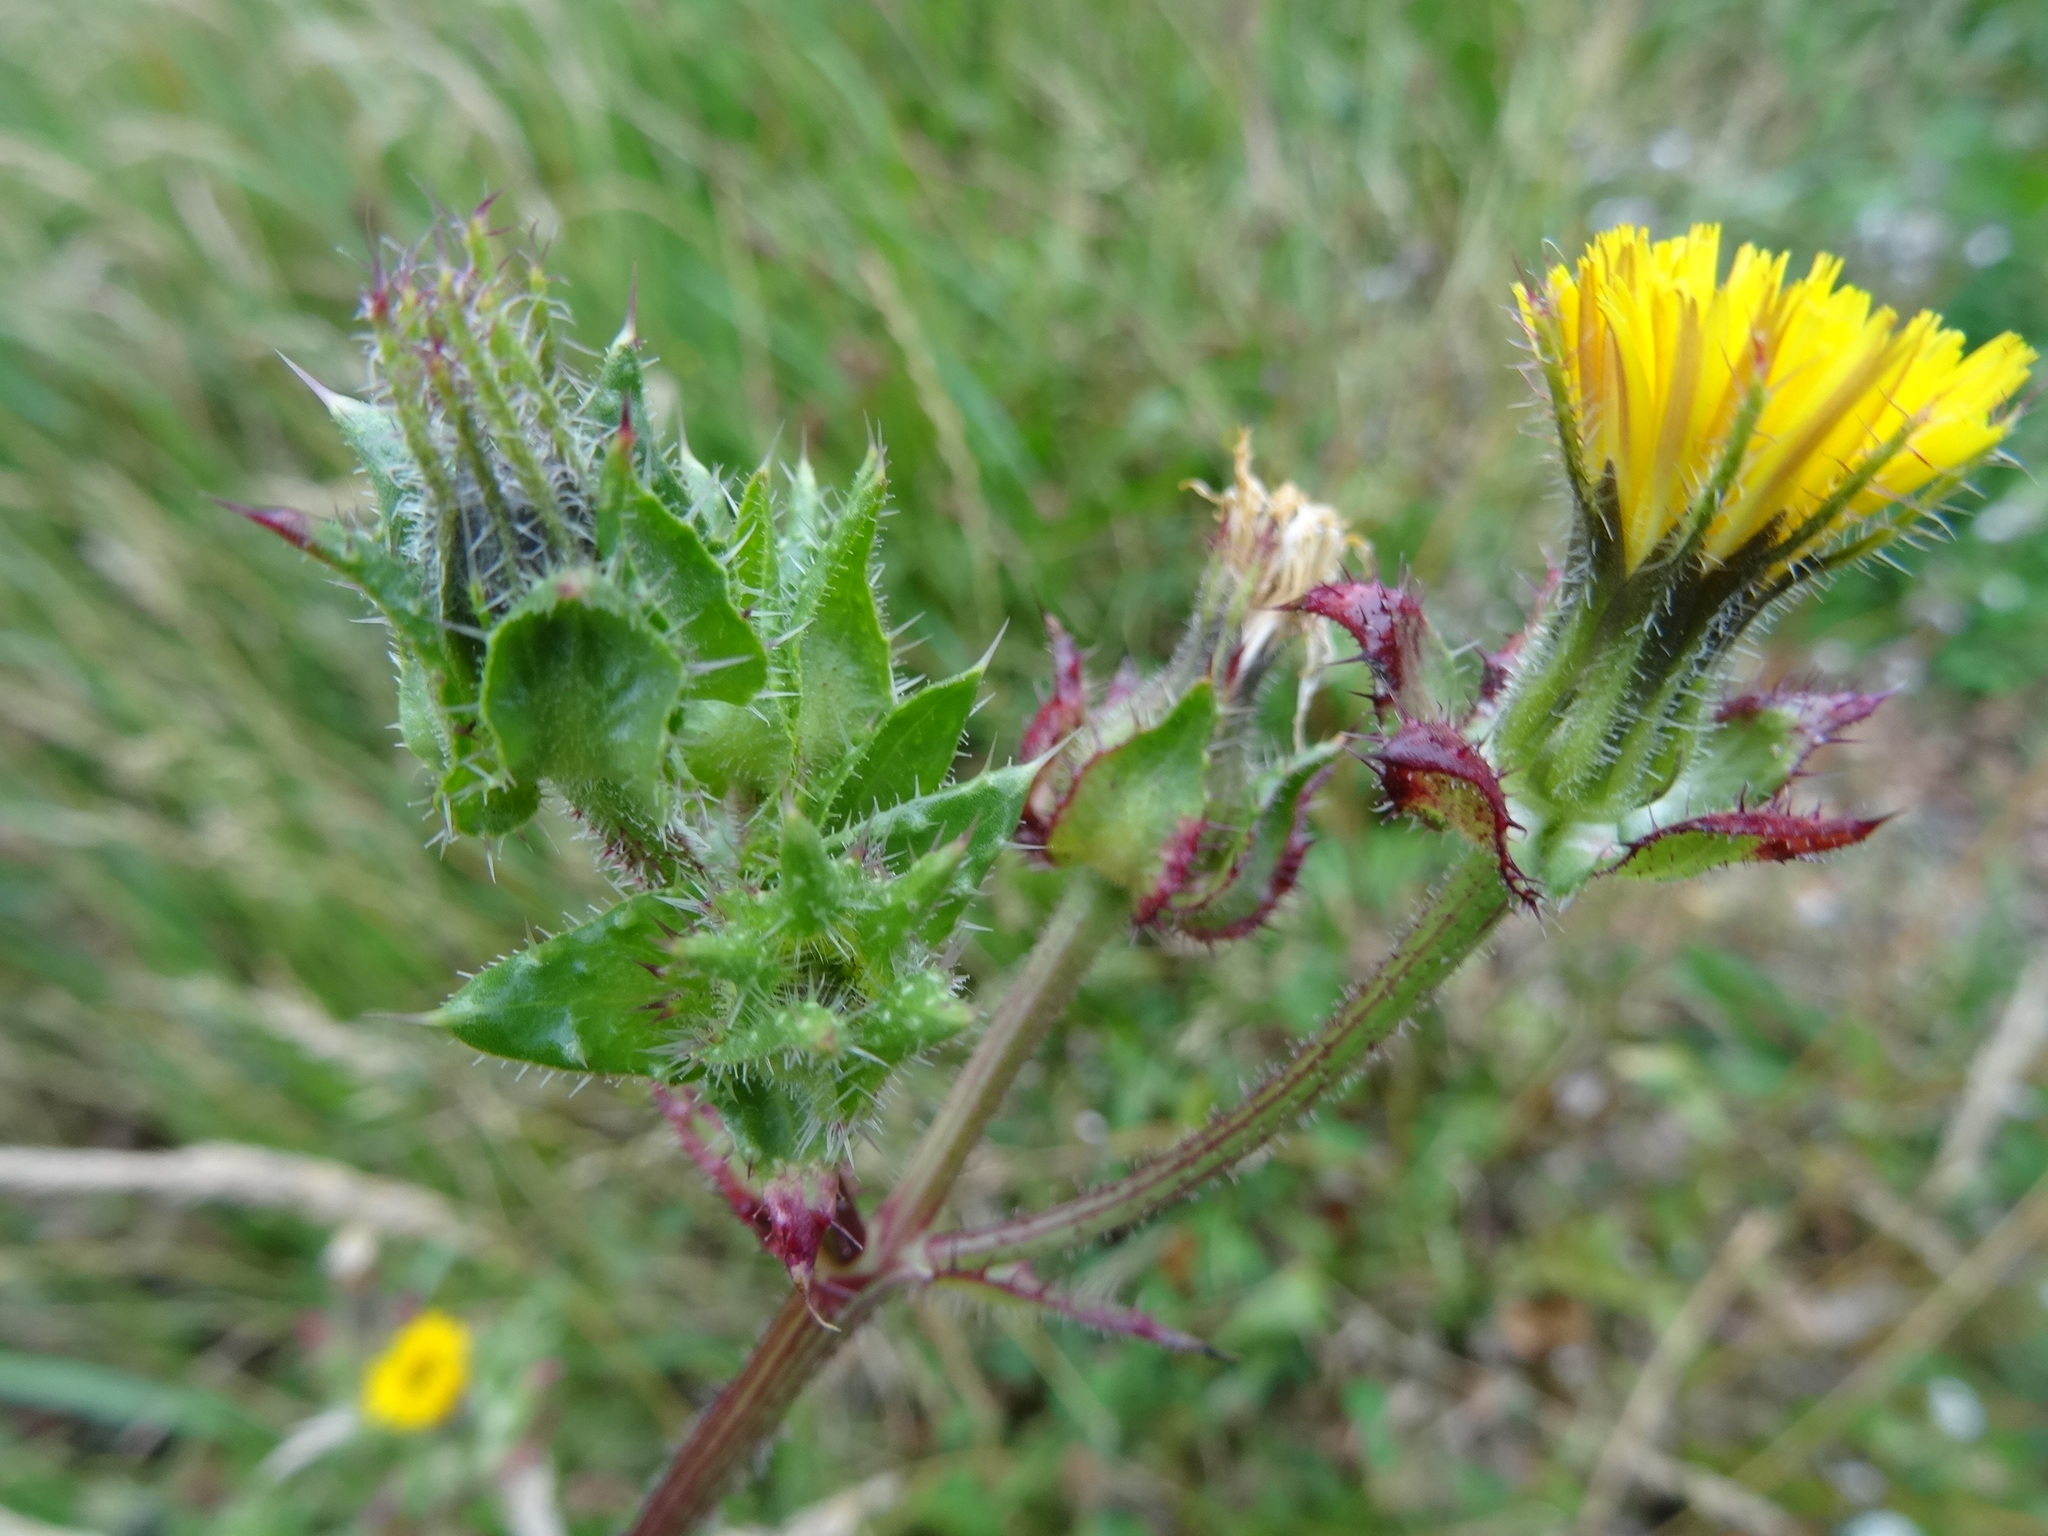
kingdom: Plantae
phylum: Tracheophyta
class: Magnoliopsida
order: Asterales
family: Asteraceae
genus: Helminthotheca
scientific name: Helminthotheca echioides
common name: Ox-tongue
